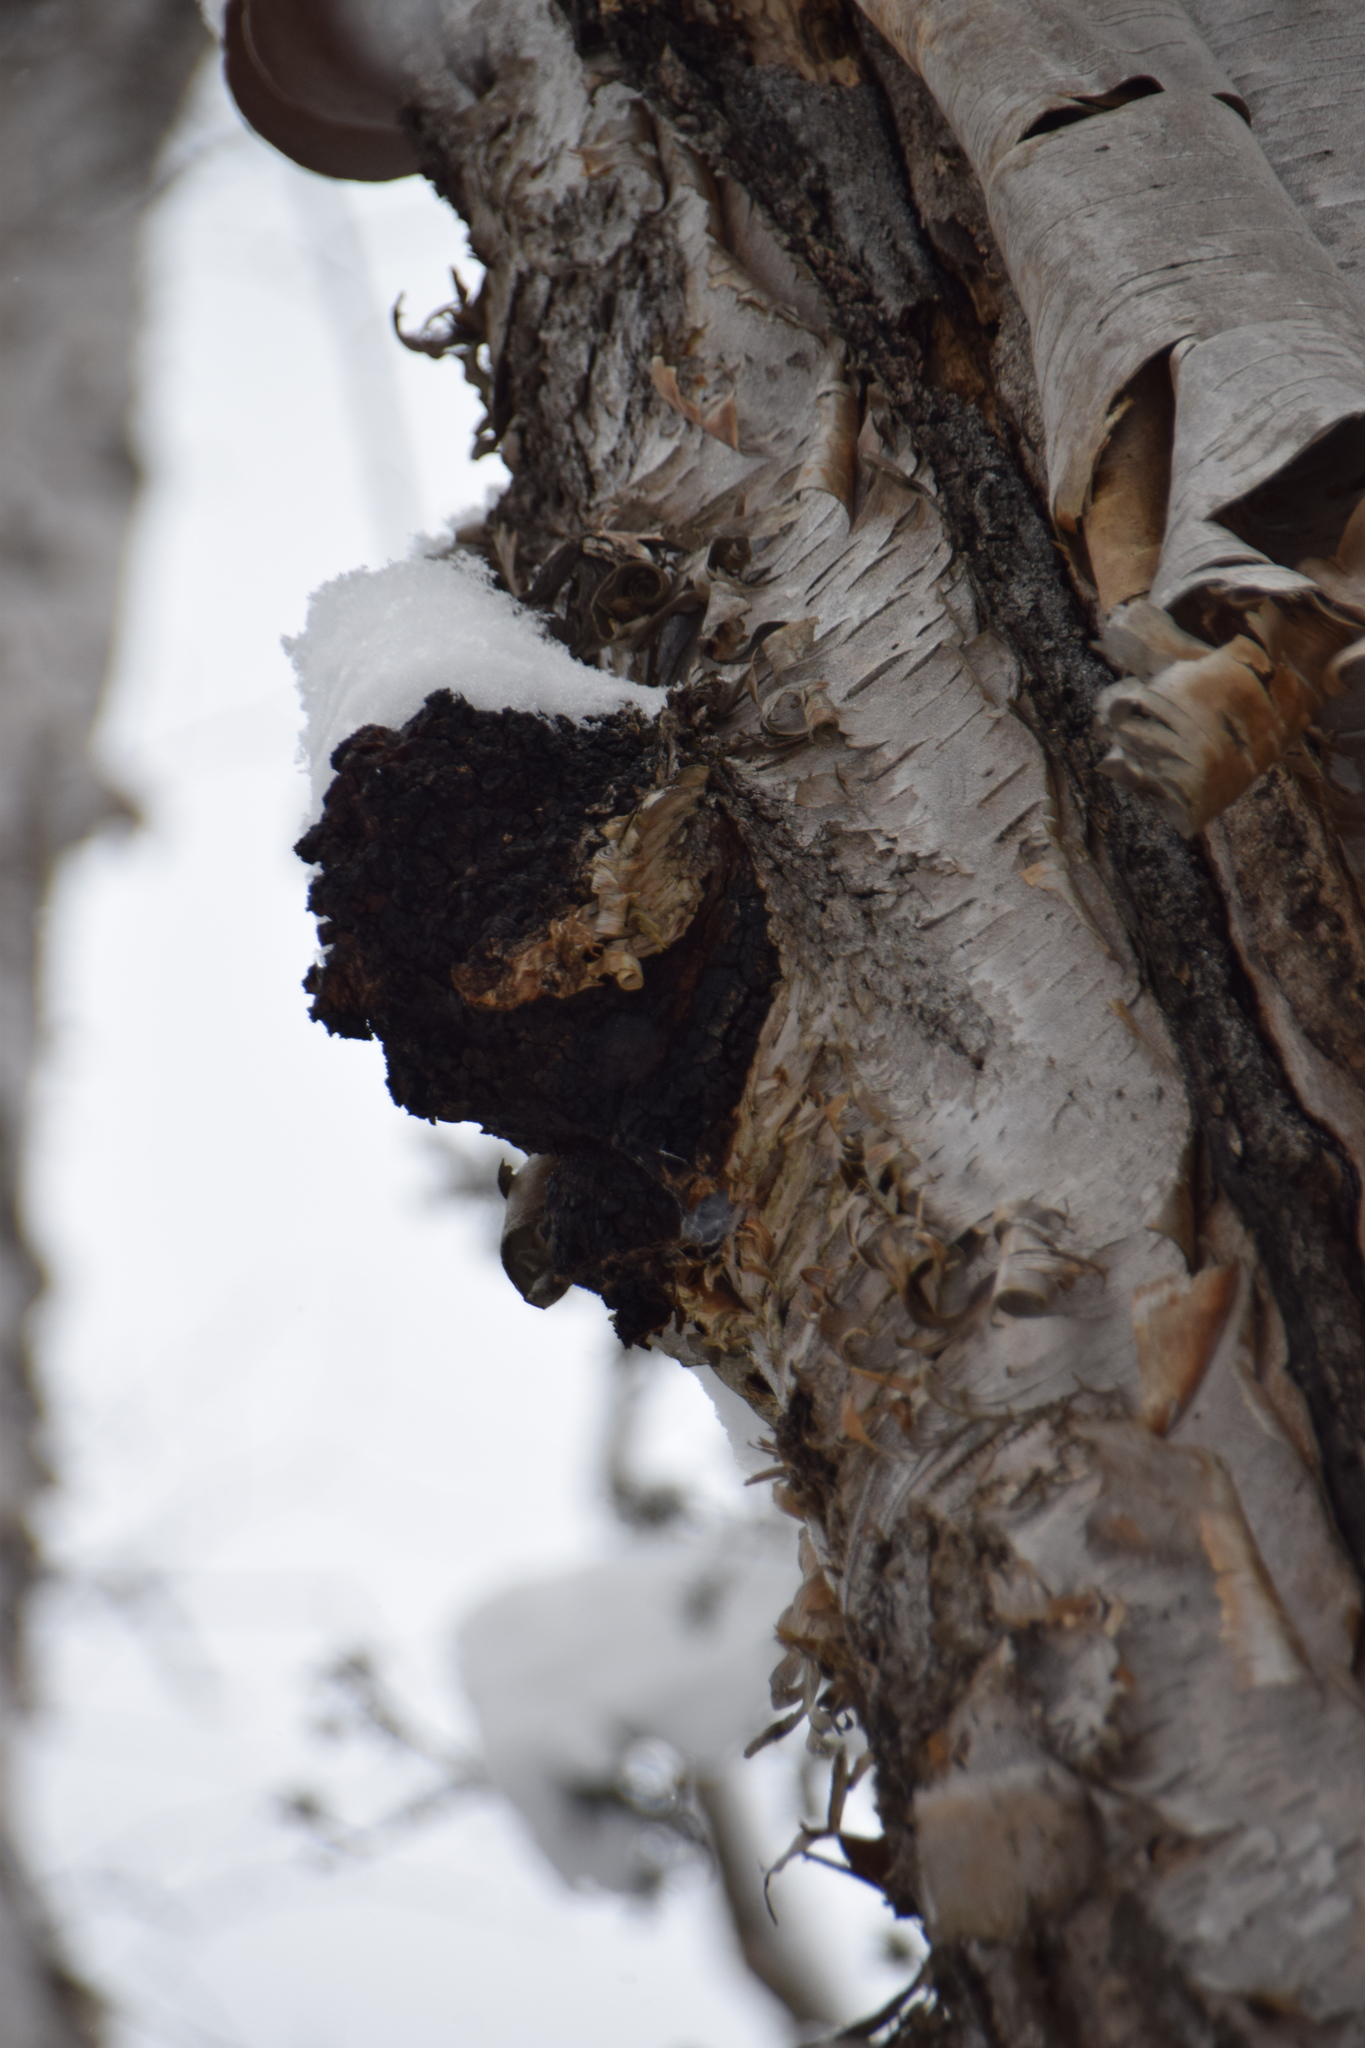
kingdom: Fungi
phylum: Basidiomycota
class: Agaricomycetes
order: Hymenochaetales
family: Hymenochaetaceae
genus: Inonotus
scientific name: Inonotus obliquus
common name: Chaga
